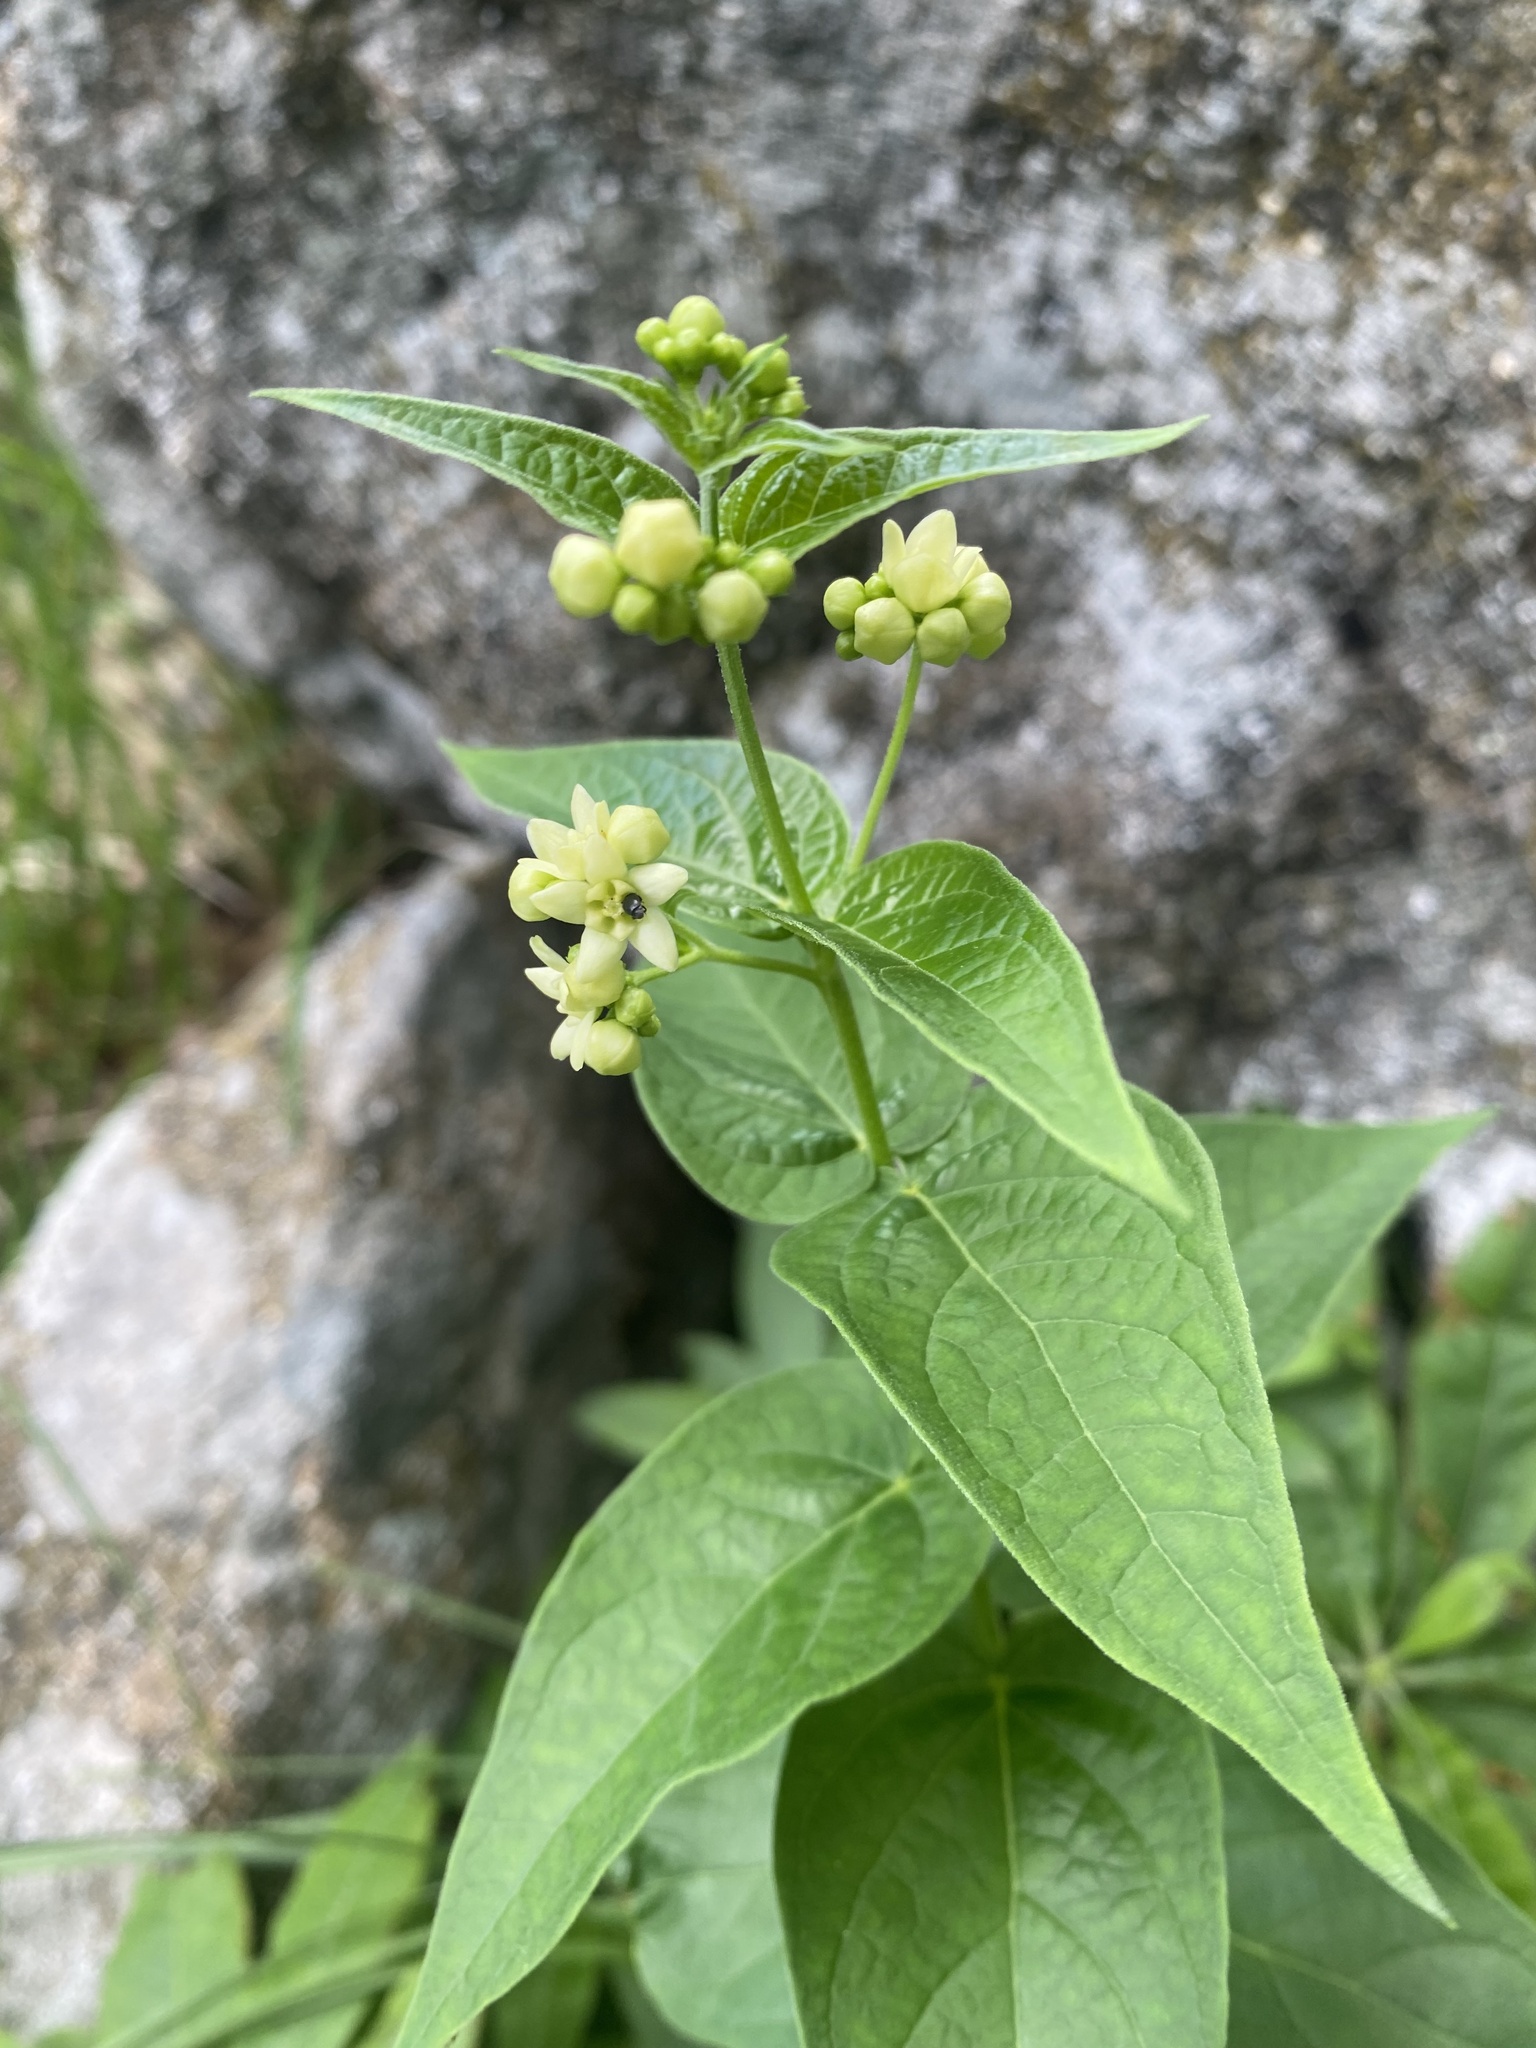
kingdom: Plantae
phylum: Tracheophyta
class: Magnoliopsida
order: Gentianales
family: Apocynaceae
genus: Vincetoxicum
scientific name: Vincetoxicum hirundinaria
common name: White swallowwort
